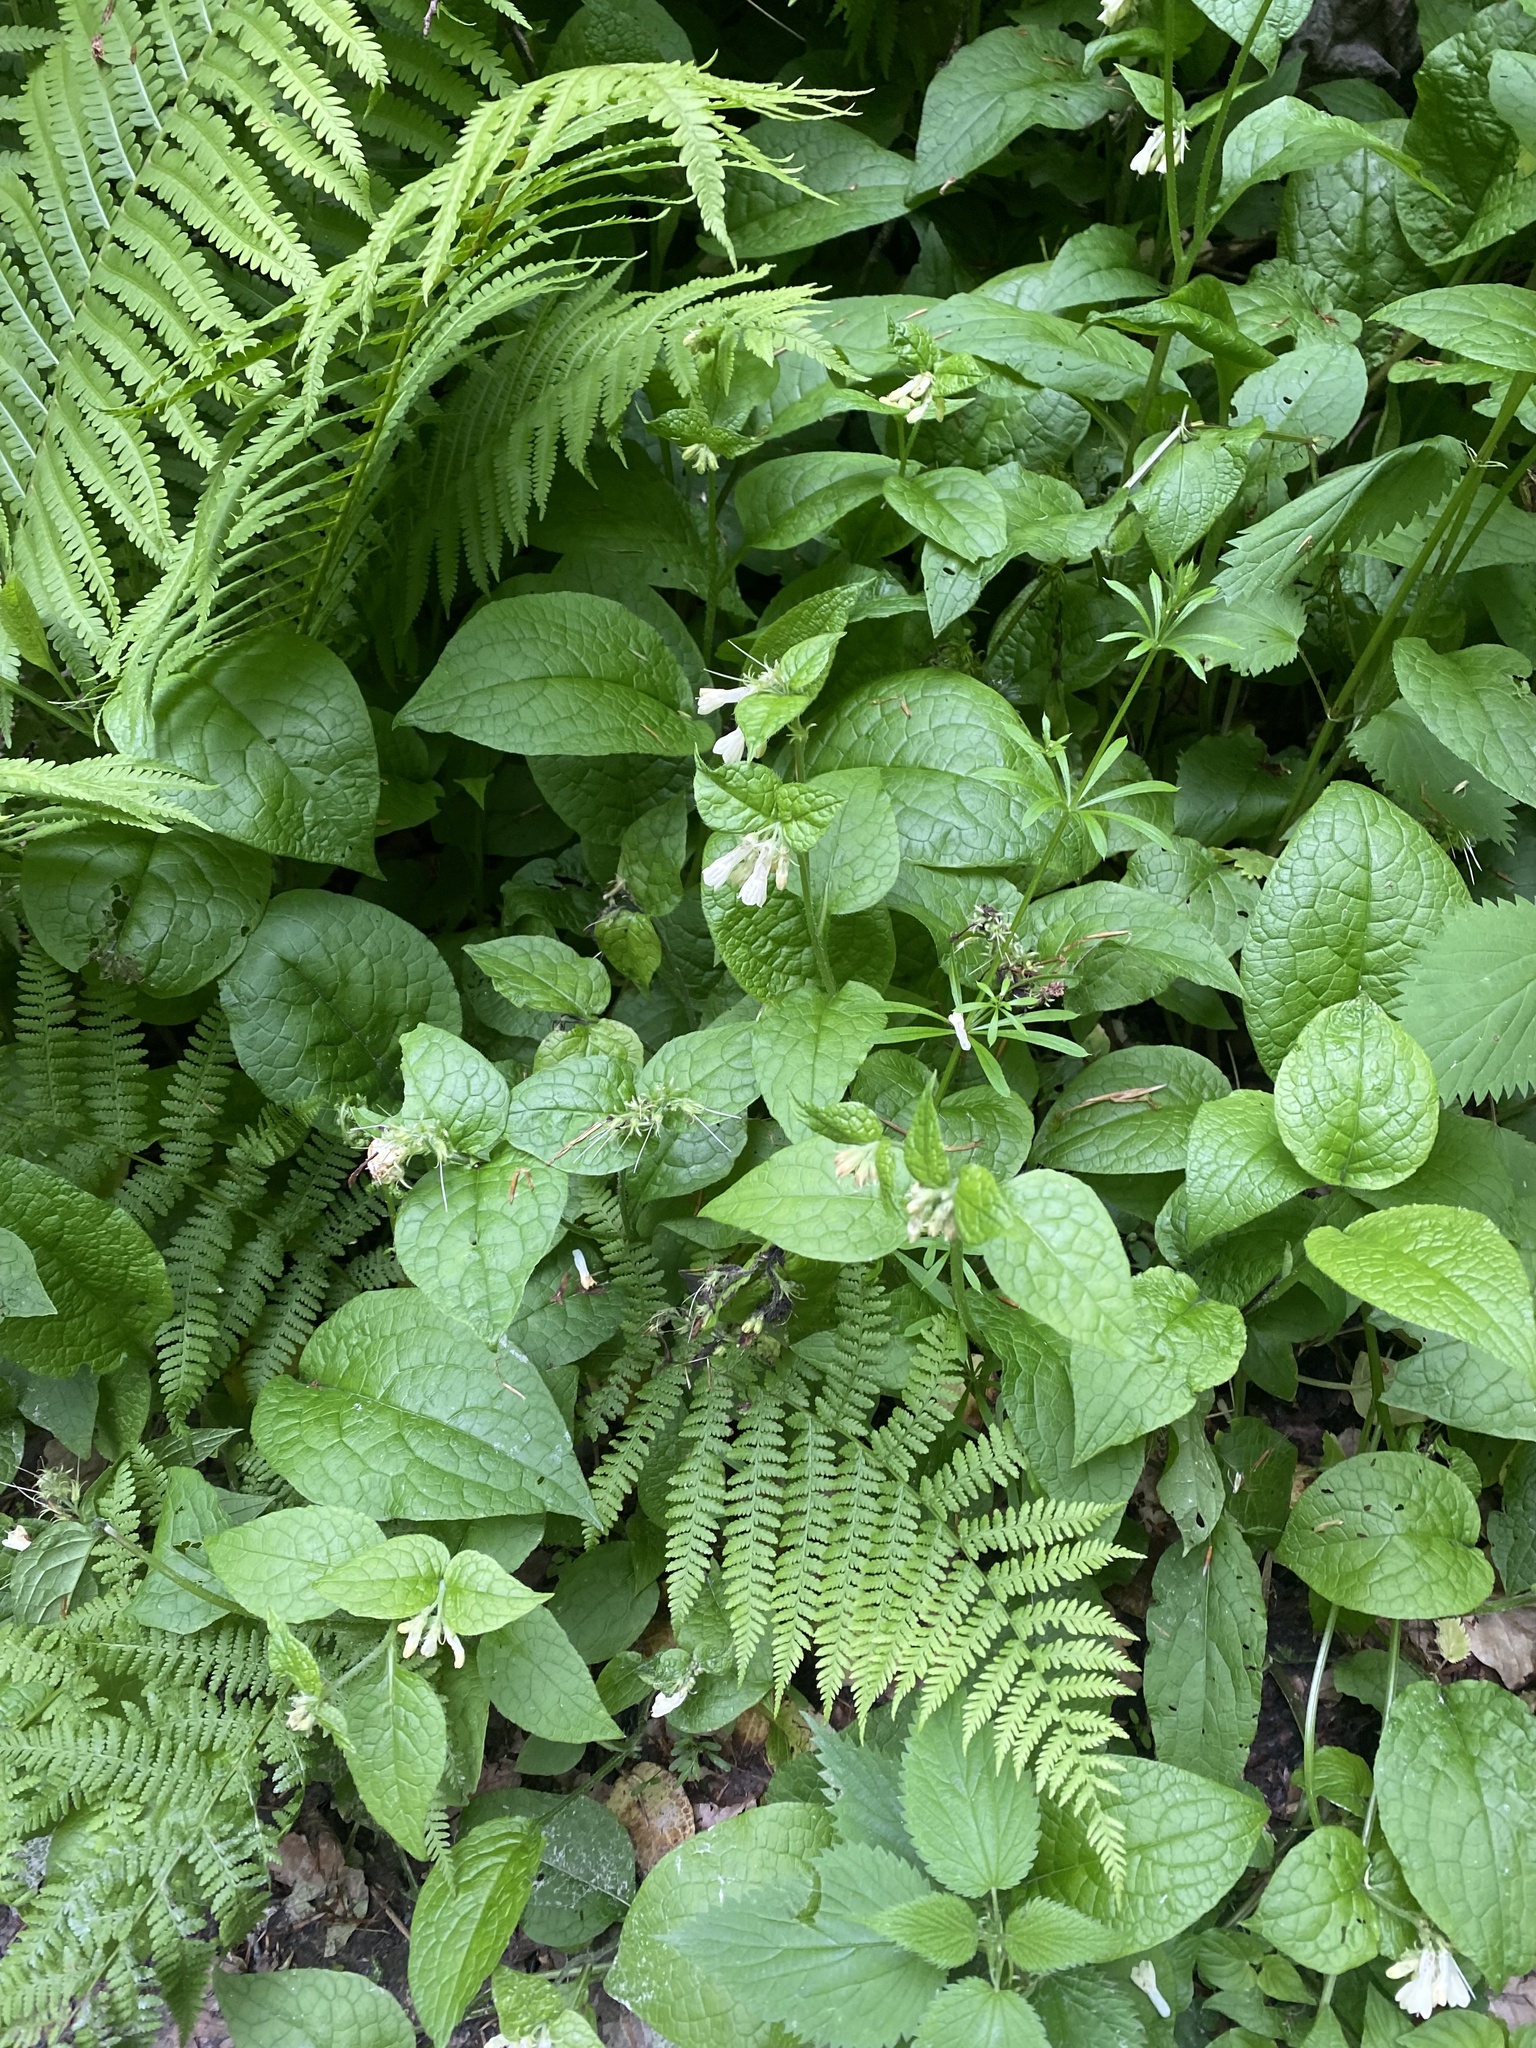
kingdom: Plantae
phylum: Tracheophyta
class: Magnoliopsida
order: Boraginales
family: Boraginaceae
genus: Symphytum
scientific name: Symphytum grandiflorum
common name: Creeping comfrey
